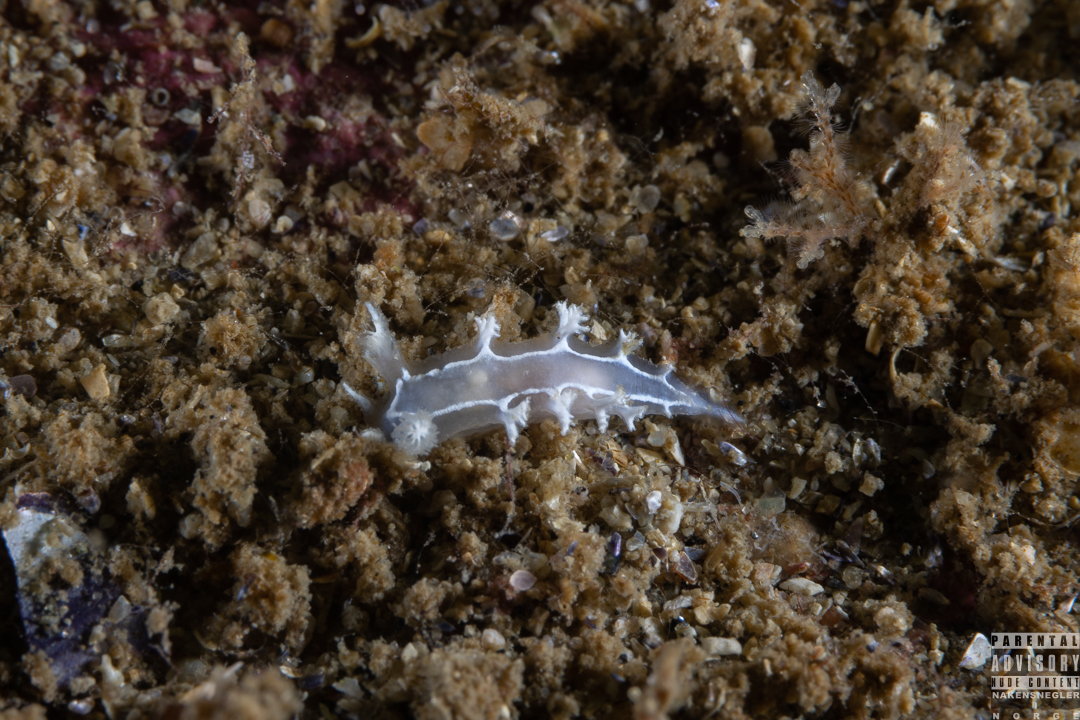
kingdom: Animalia
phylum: Mollusca
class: Gastropoda
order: Nudibranchia
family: Tritoniidae
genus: Duvaucelia
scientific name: Duvaucelia lineata
